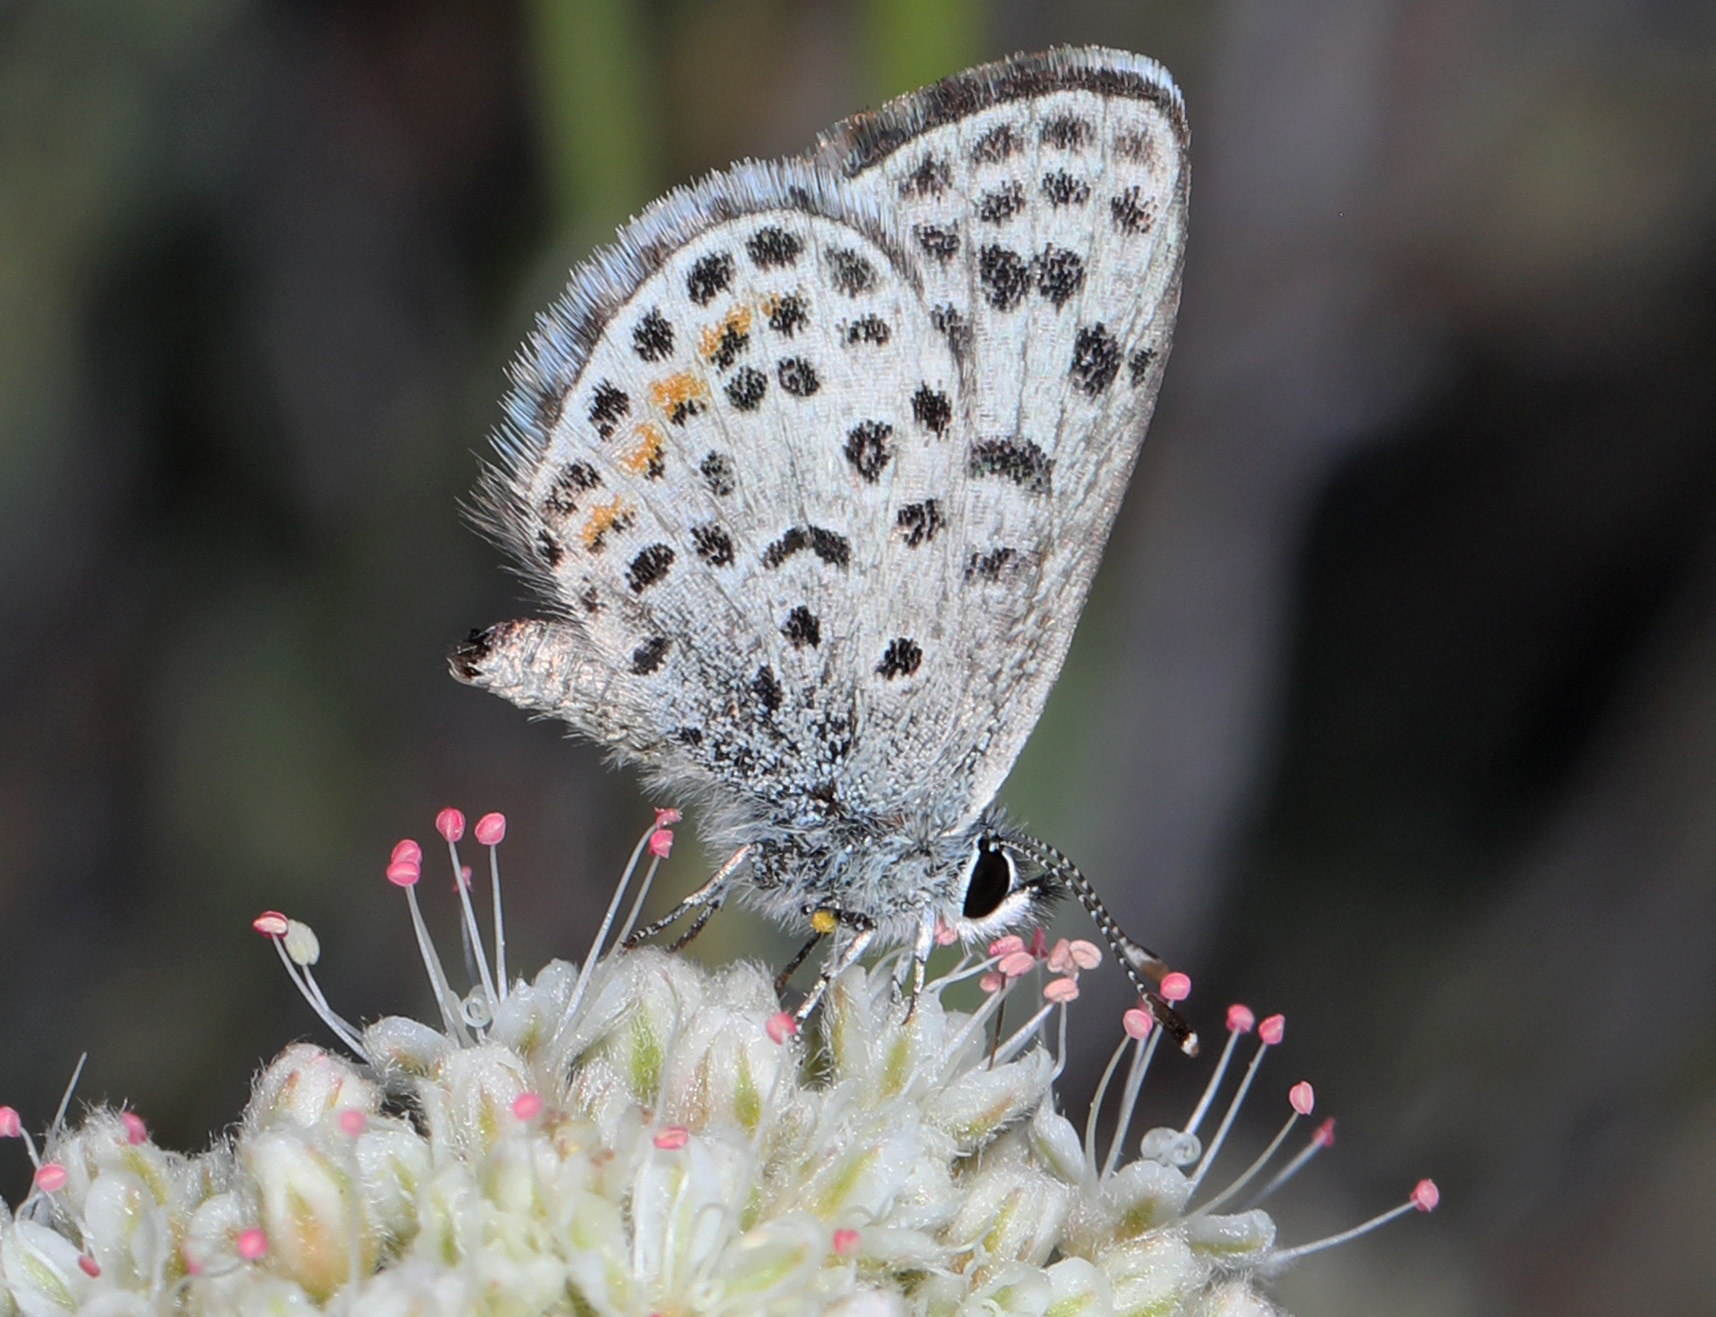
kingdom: Animalia
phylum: Arthropoda
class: Insecta
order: Lepidoptera
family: Lycaenidae
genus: Philotes
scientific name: Philotes bernardino
